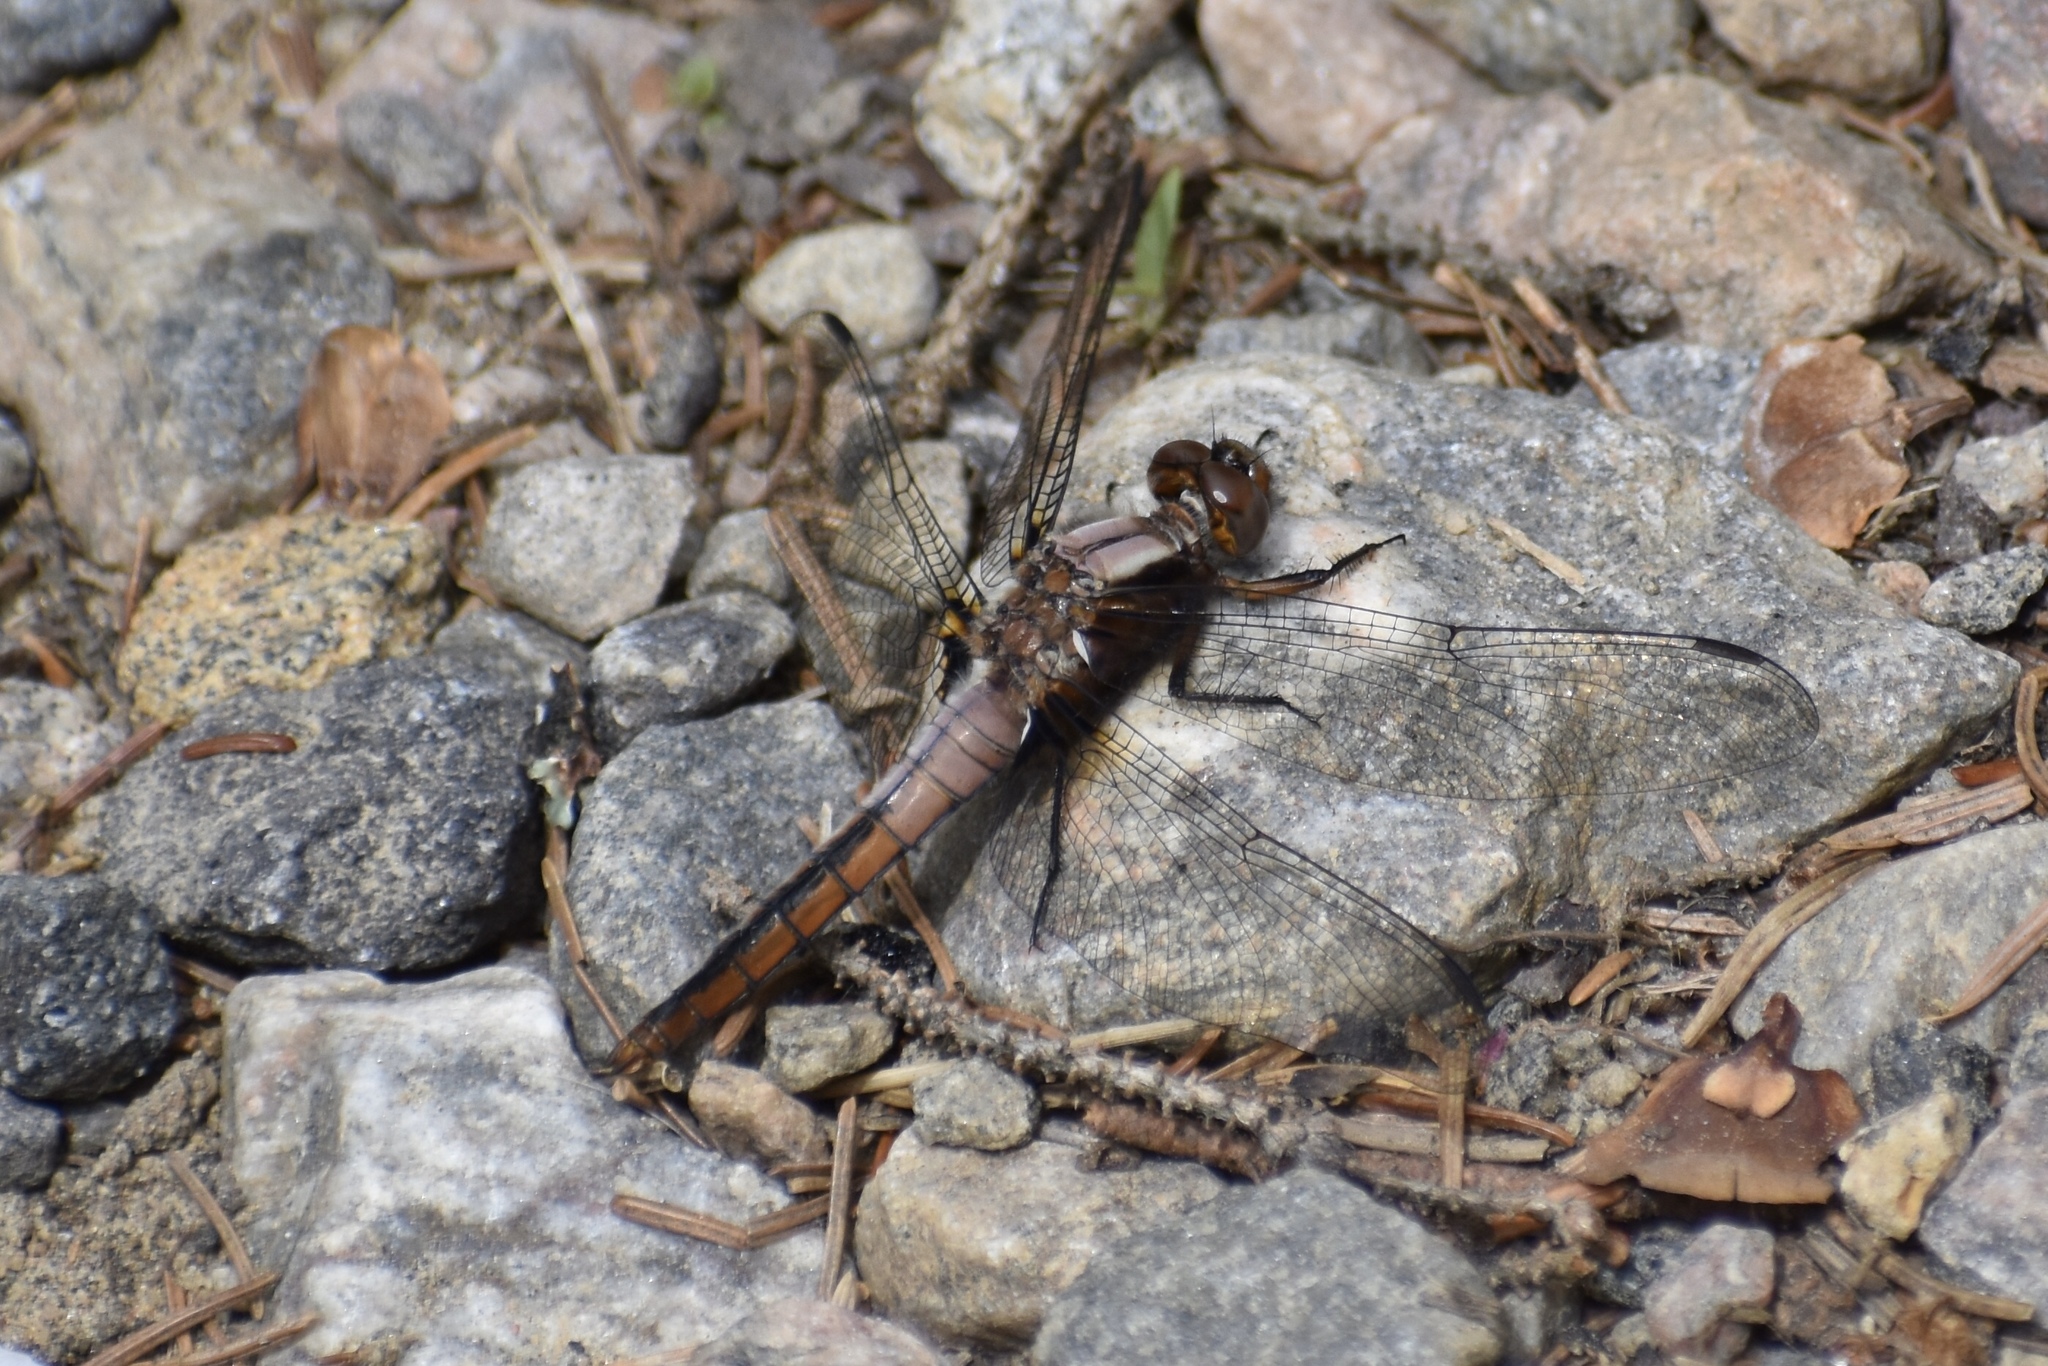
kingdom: Animalia
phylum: Arthropoda
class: Insecta
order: Odonata
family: Libellulidae
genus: Ladona
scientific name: Ladona julia
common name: Chalk-fronted corporal
